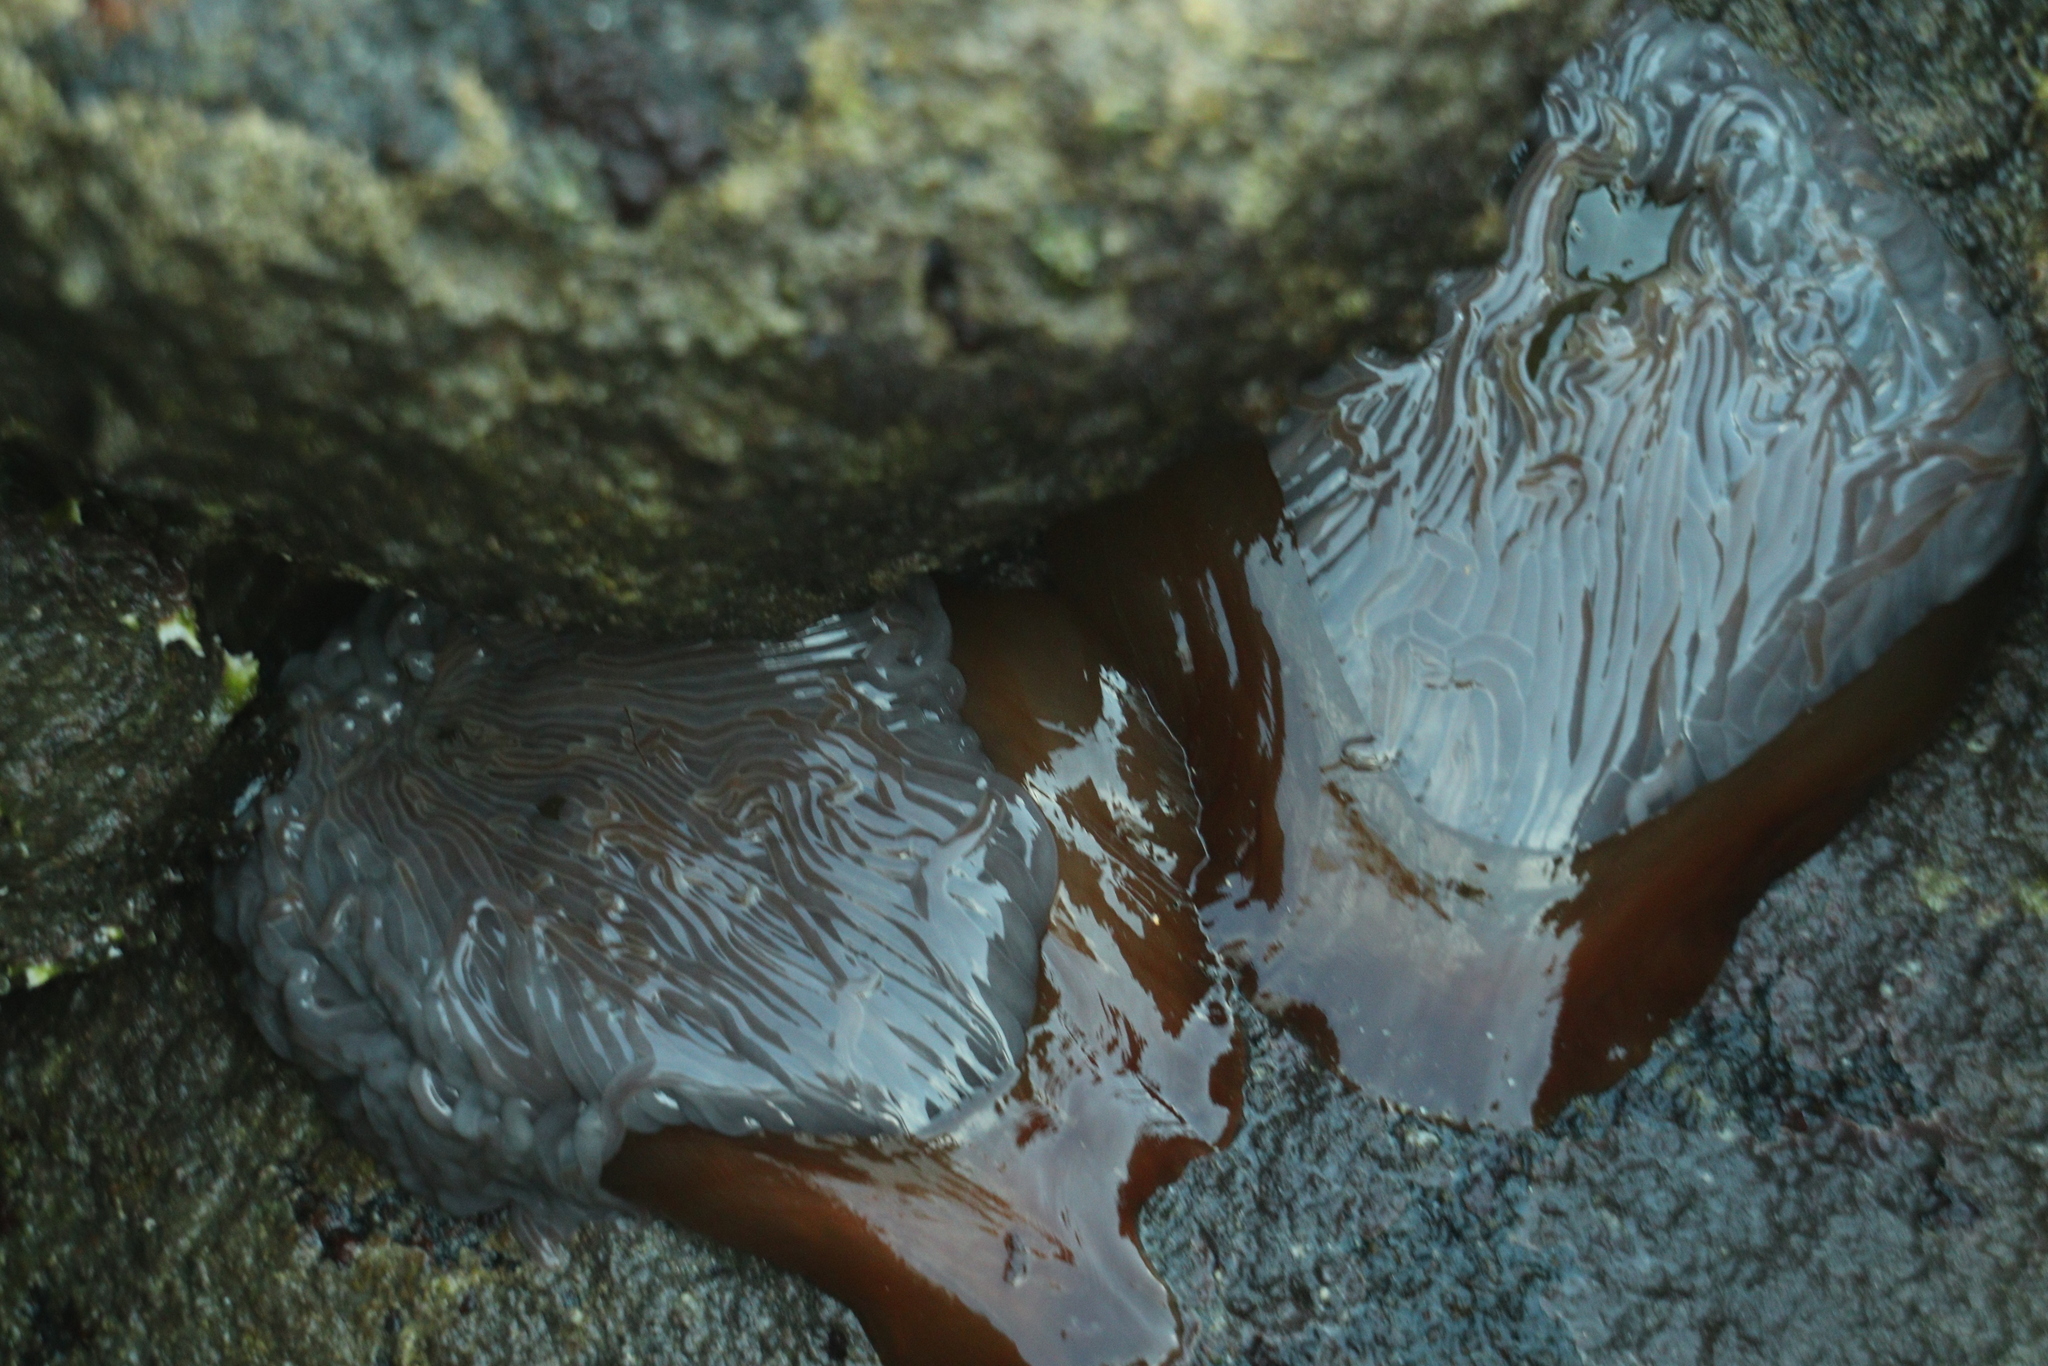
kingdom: Animalia
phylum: Cnidaria
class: Anthozoa
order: Actiniaria
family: Actiniidae
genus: Anemonia
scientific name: Anemonia viridis
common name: Snakelocks anemone
